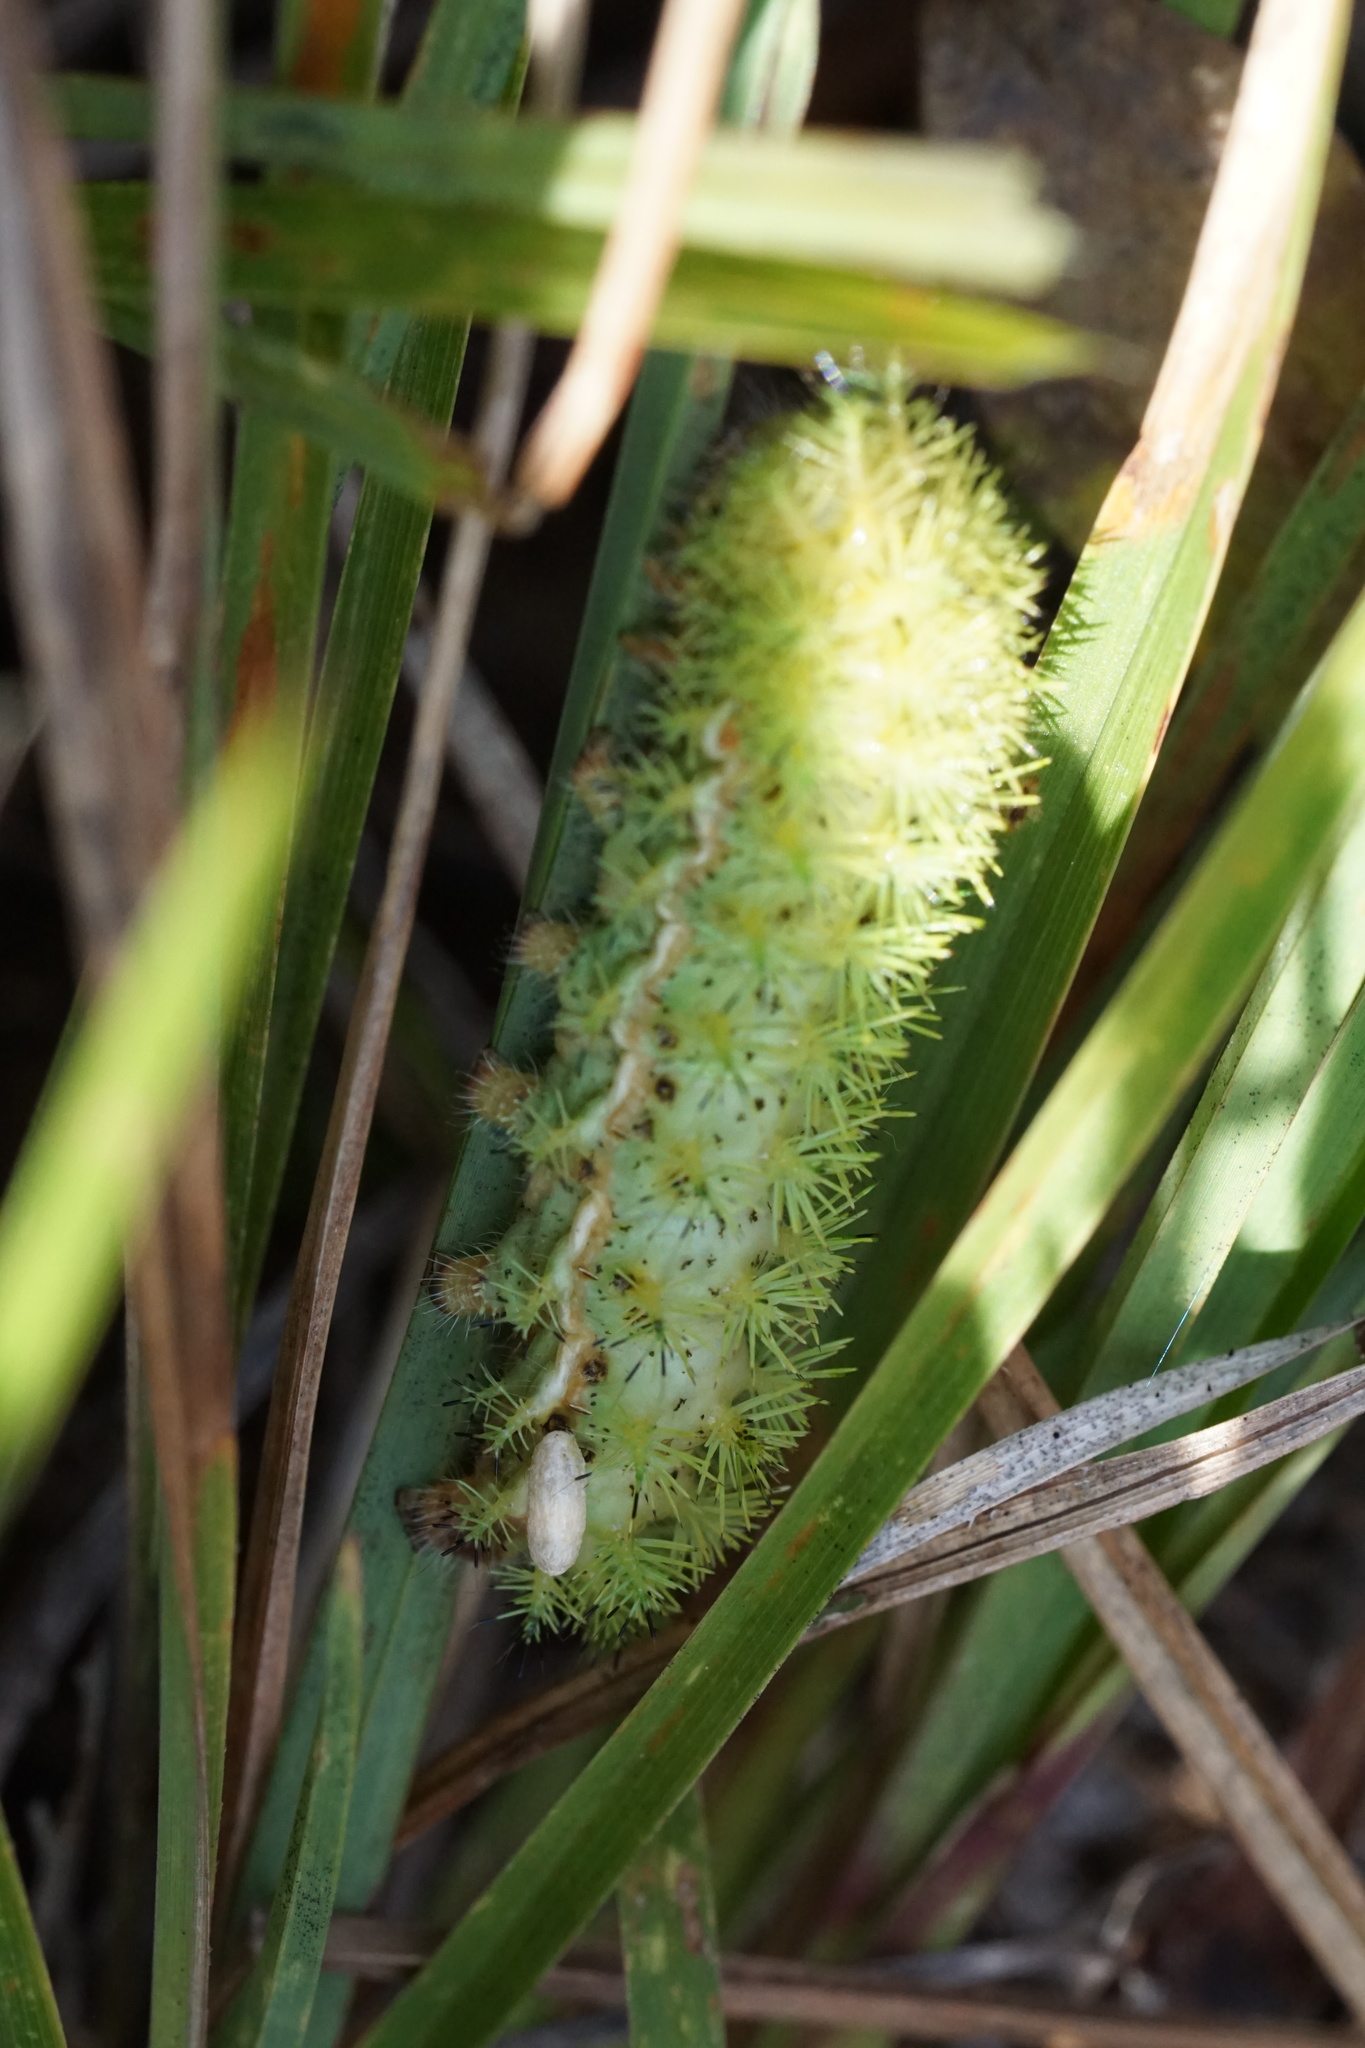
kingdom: Animalia
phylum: Arthropoda
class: Insecta
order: Lepidoptera
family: Saturniidae
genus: Automeris
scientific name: Automeris io
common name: Io moth
